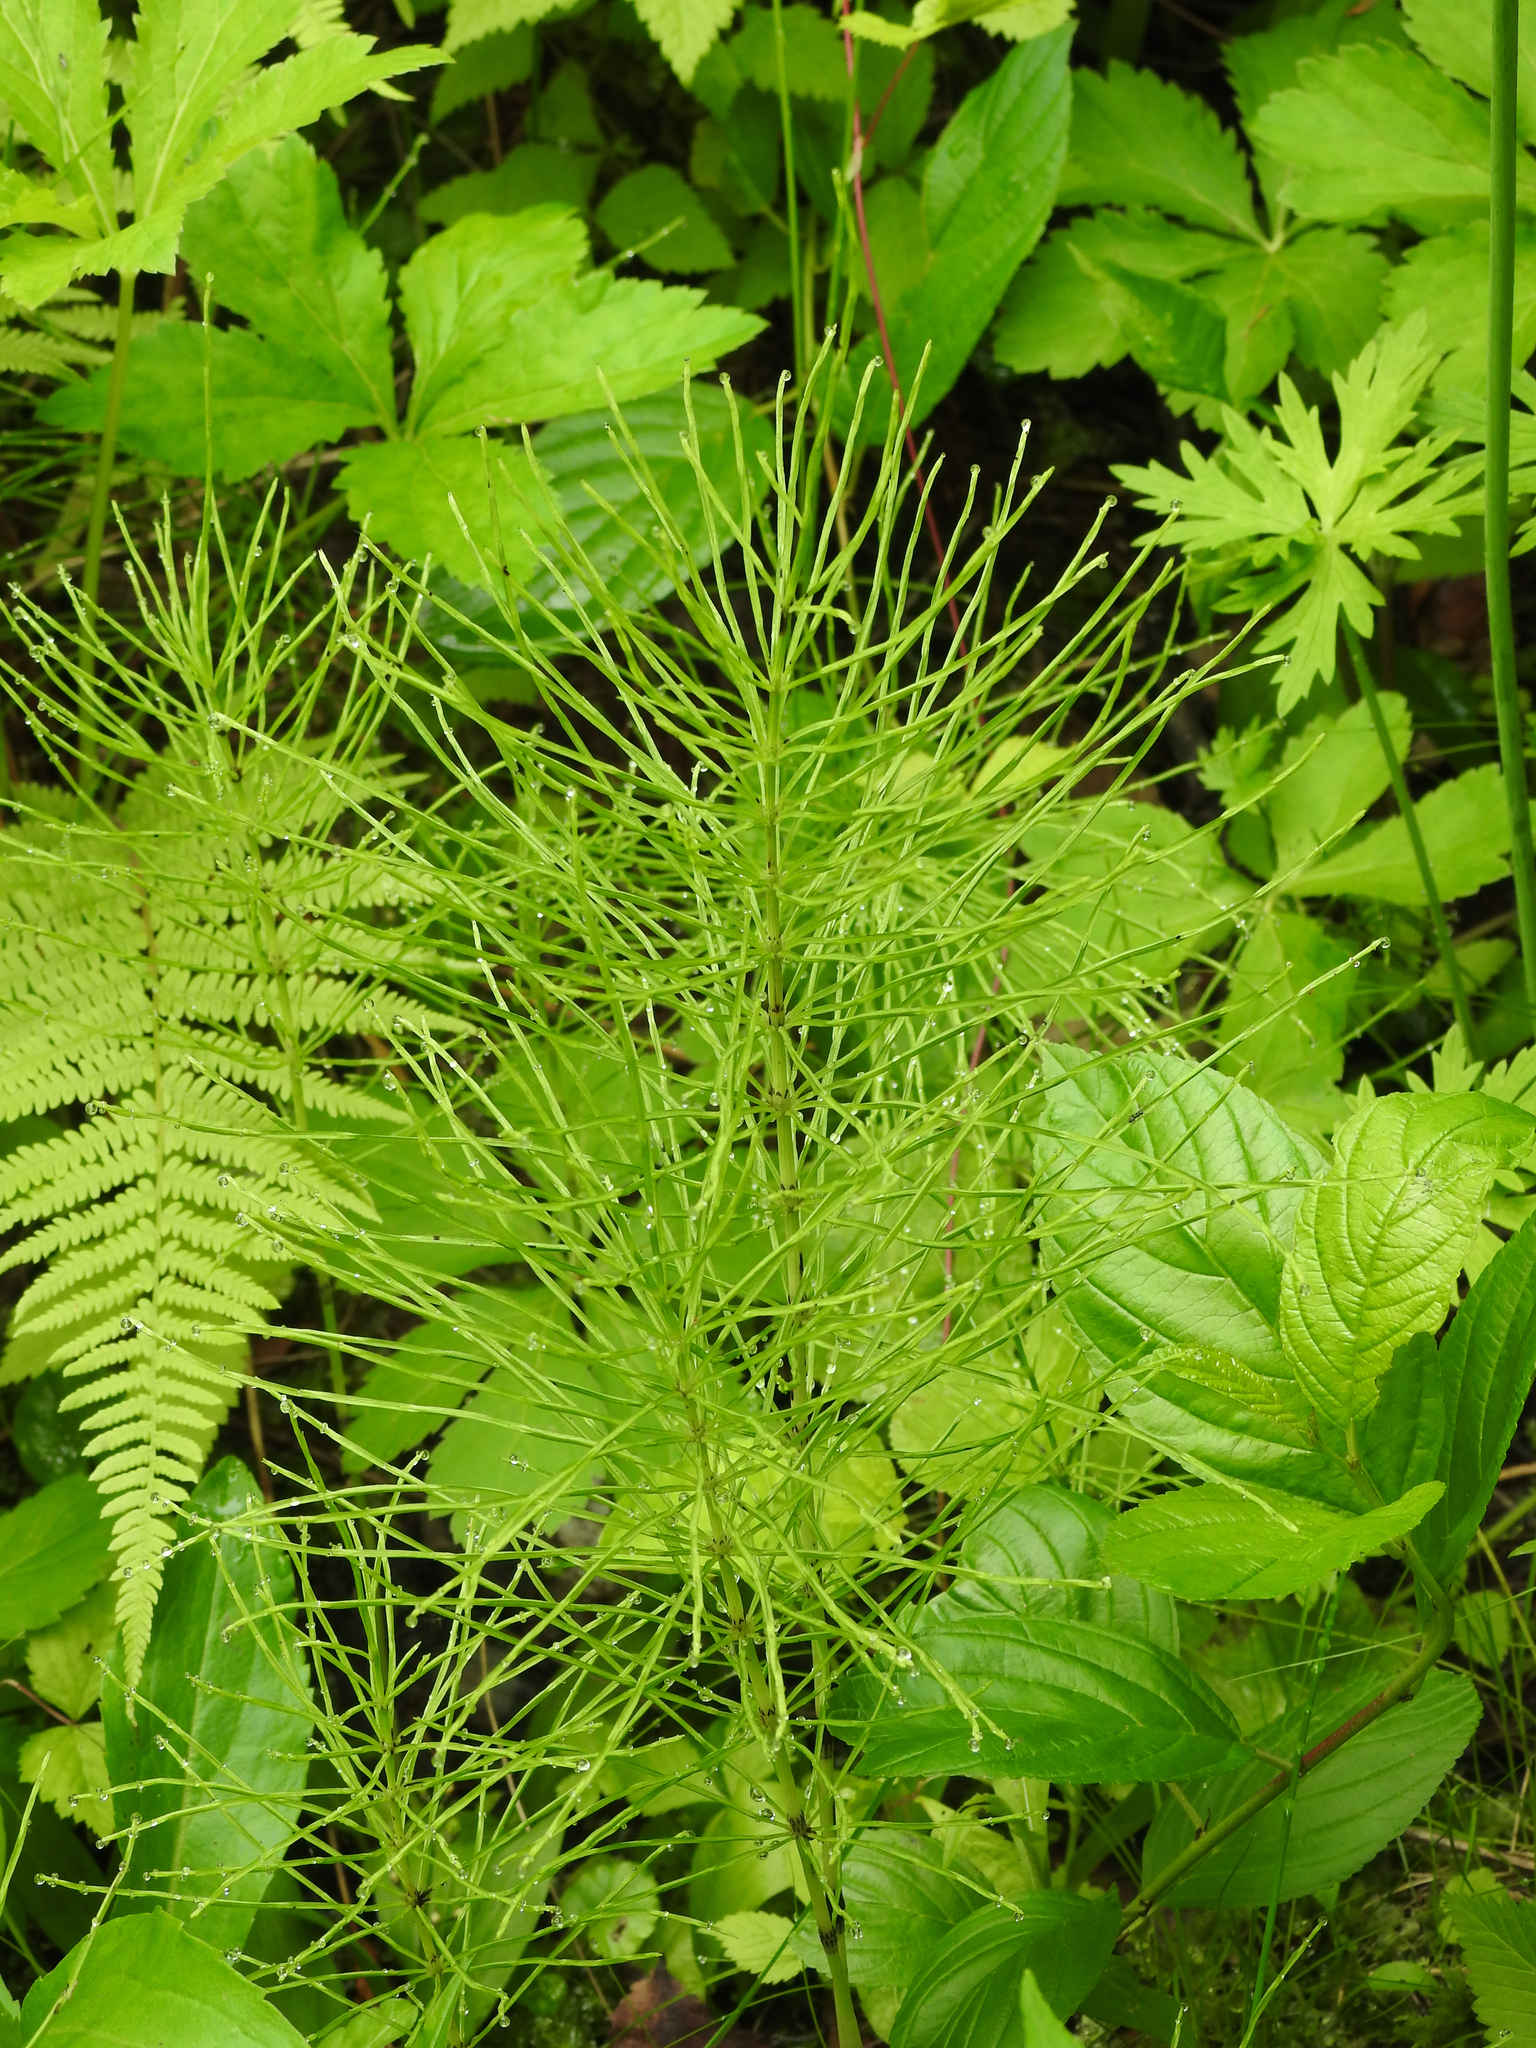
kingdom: Plantae
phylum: Tracheophyta
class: Polypodiopsida
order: Equisetales
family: Equisetaceae
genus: Equisetum
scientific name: Equisetum arvense
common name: Field horsetail
